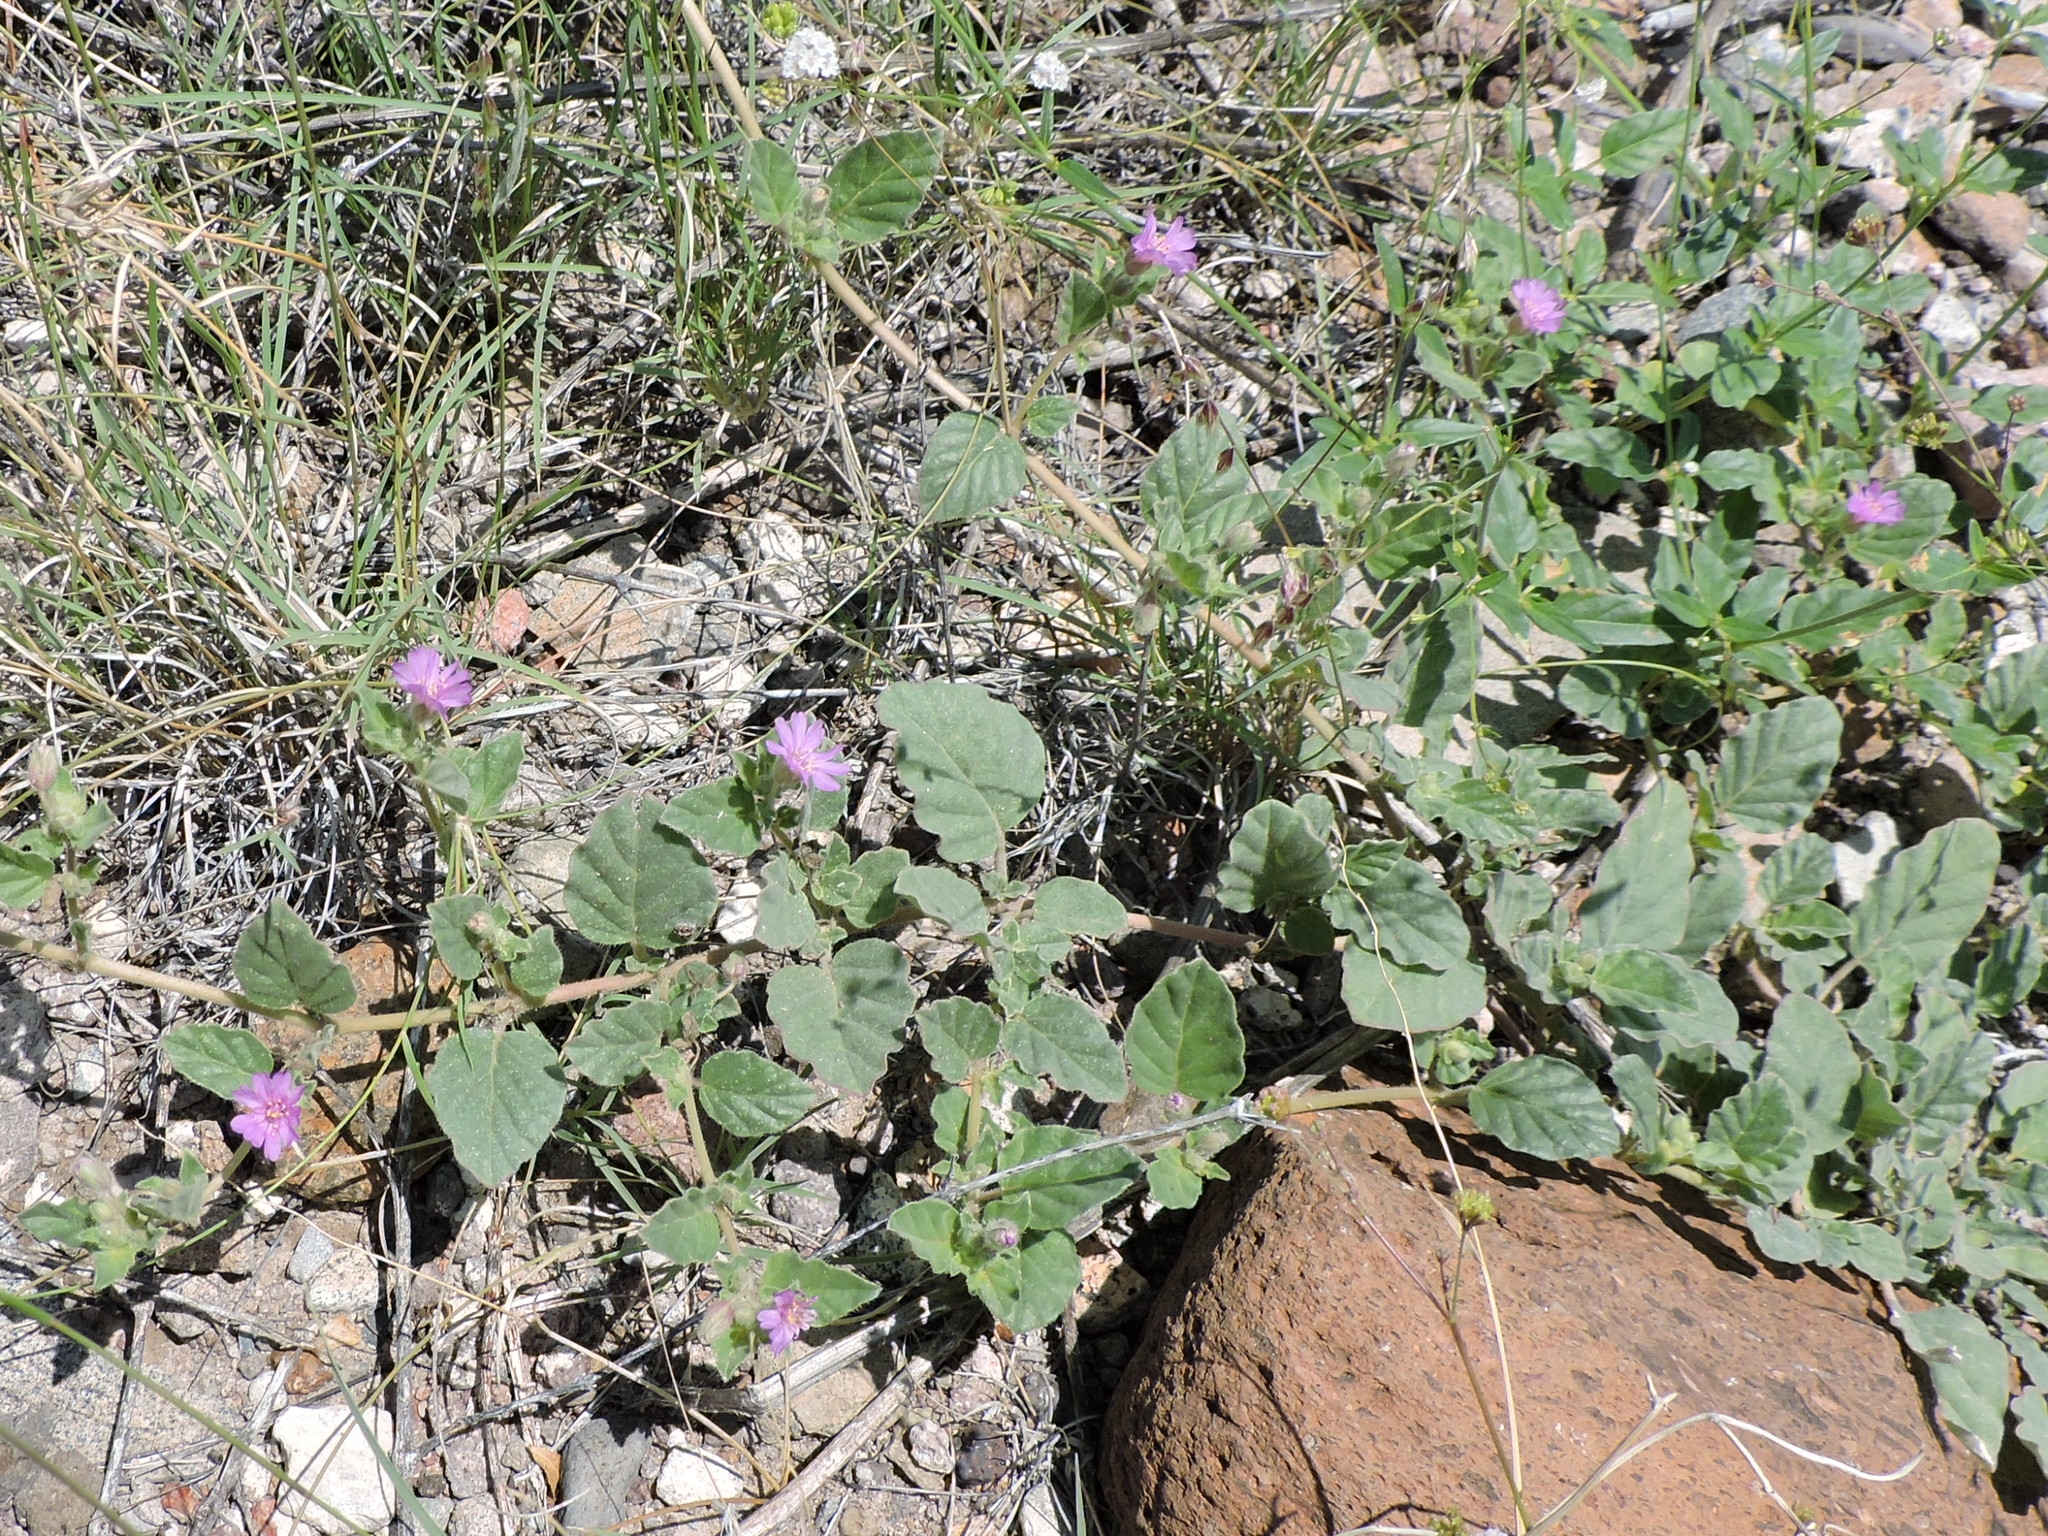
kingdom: Plantae
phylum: Tracheophyta
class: Magnoliopsida
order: Caryophyllales
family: Nyctaginaceae
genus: Allionia
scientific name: Allionia incarnata
